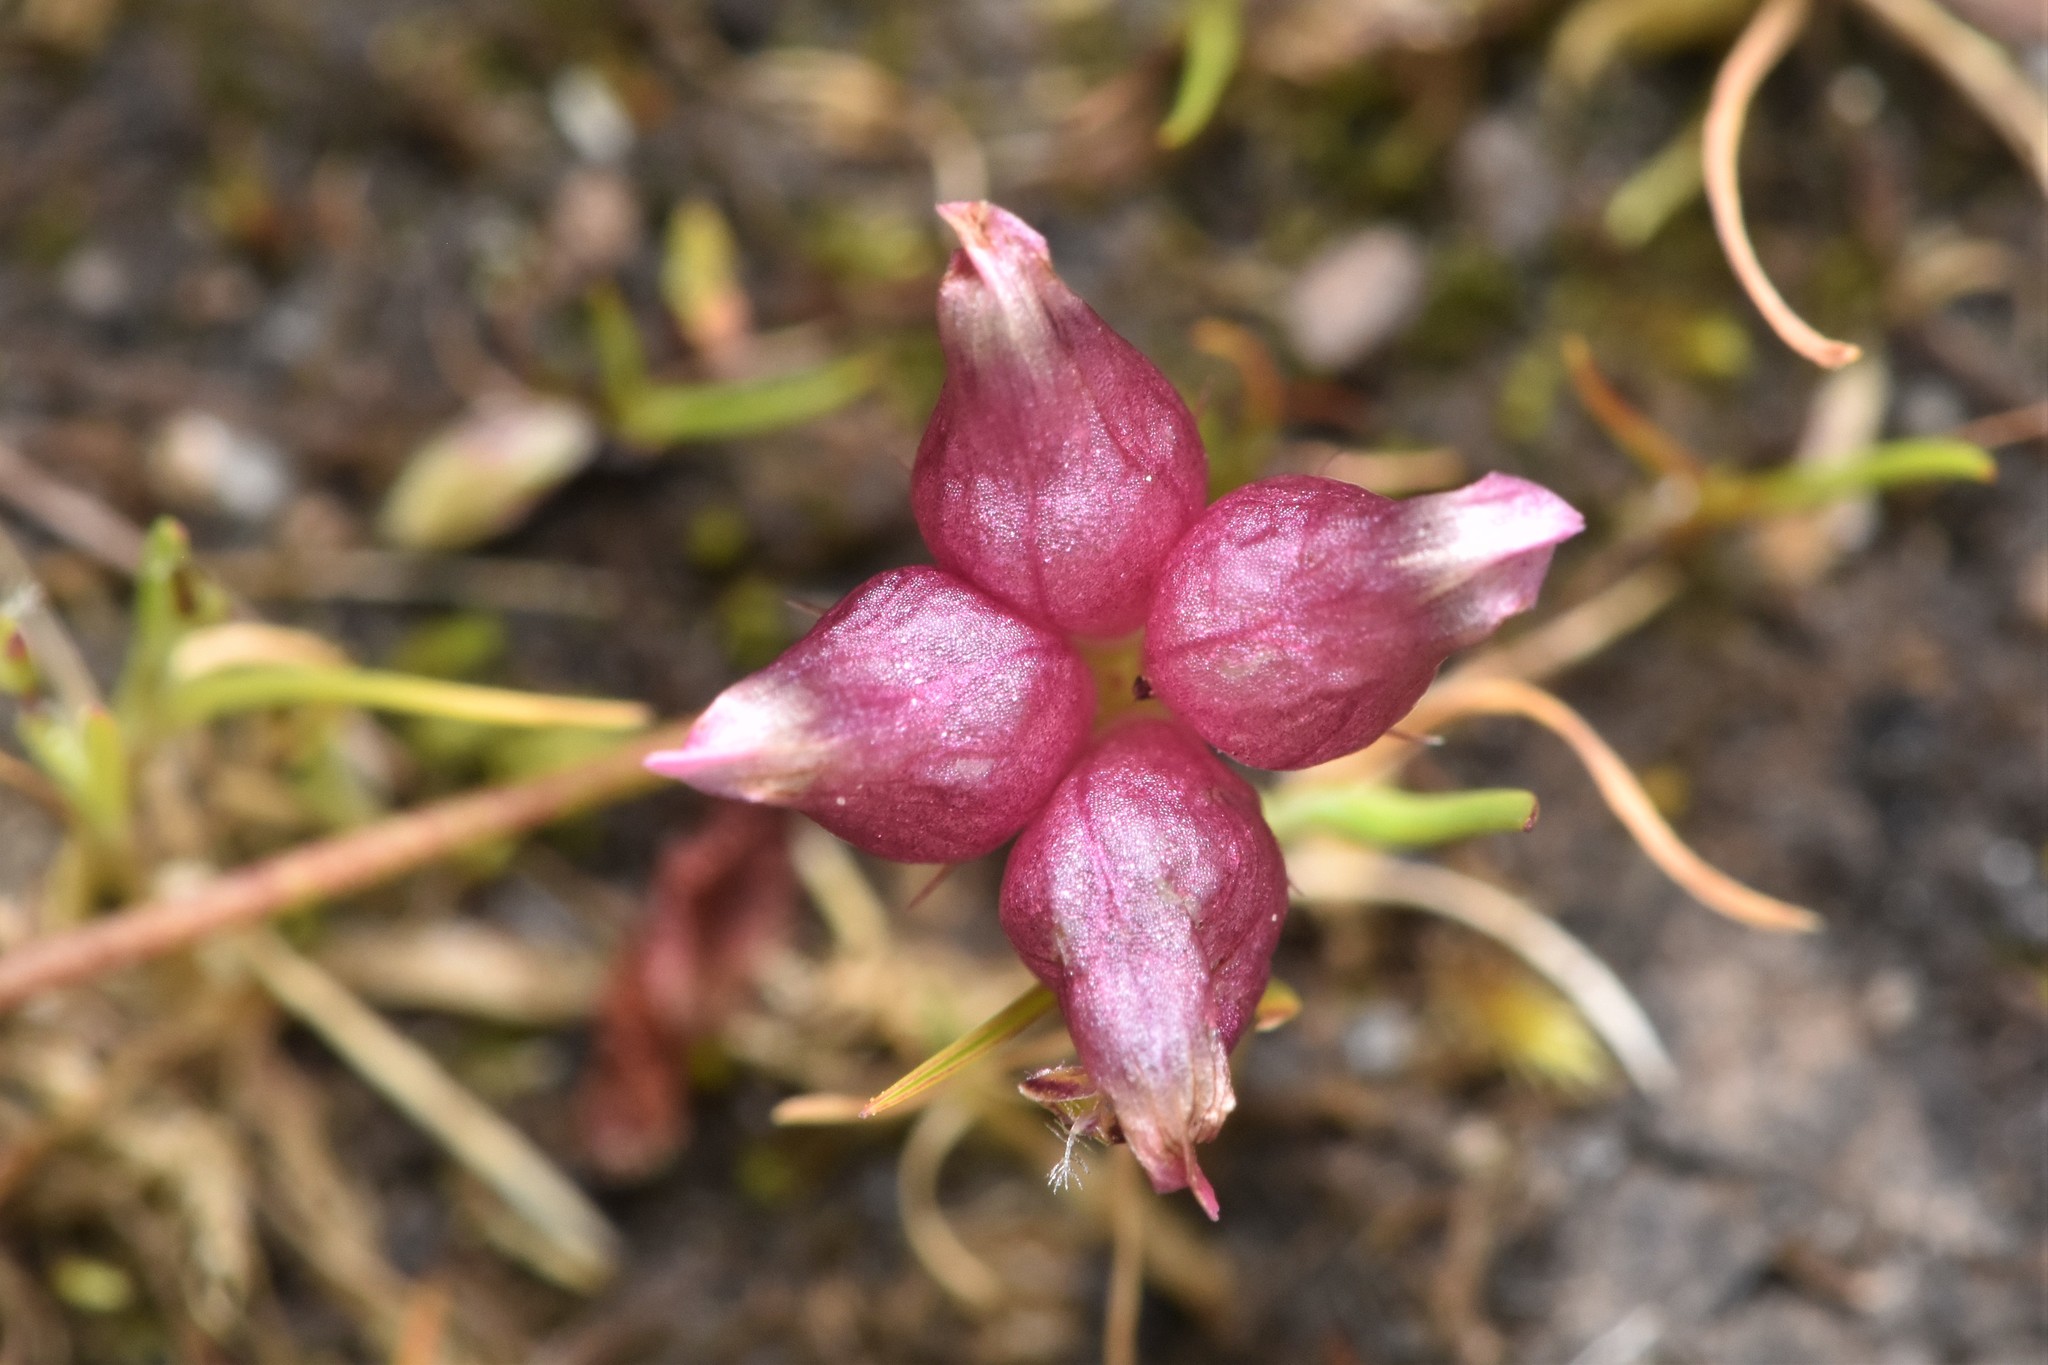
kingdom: Plantae
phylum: Tracheophyta
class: Magnoliopsida
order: Fabales
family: Fabaceae
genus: Trifolium
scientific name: Trifolium depauperatum
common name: Poverty clover
